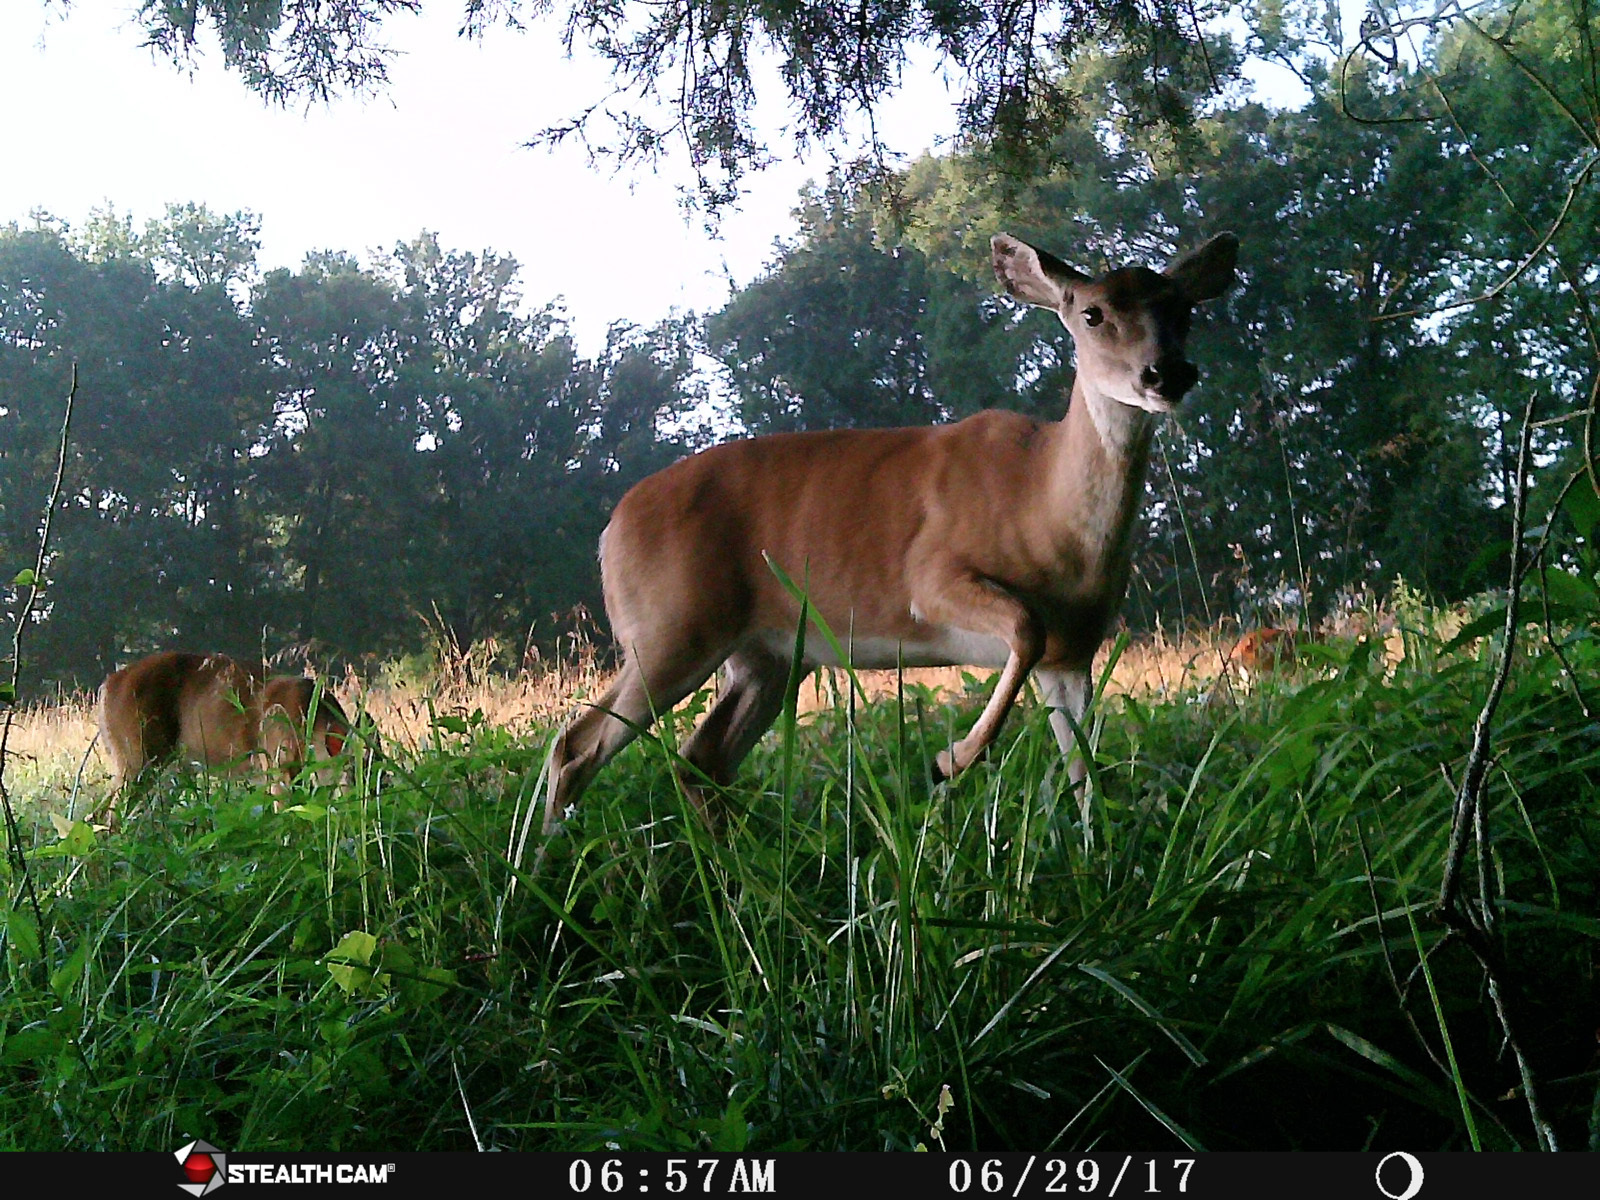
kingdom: Animalia
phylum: Chordata
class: Mammalia
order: Artiodactyla
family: Cervidae
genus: Odocoileus
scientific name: Odocoileus virginianus
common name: White-tailed deer
